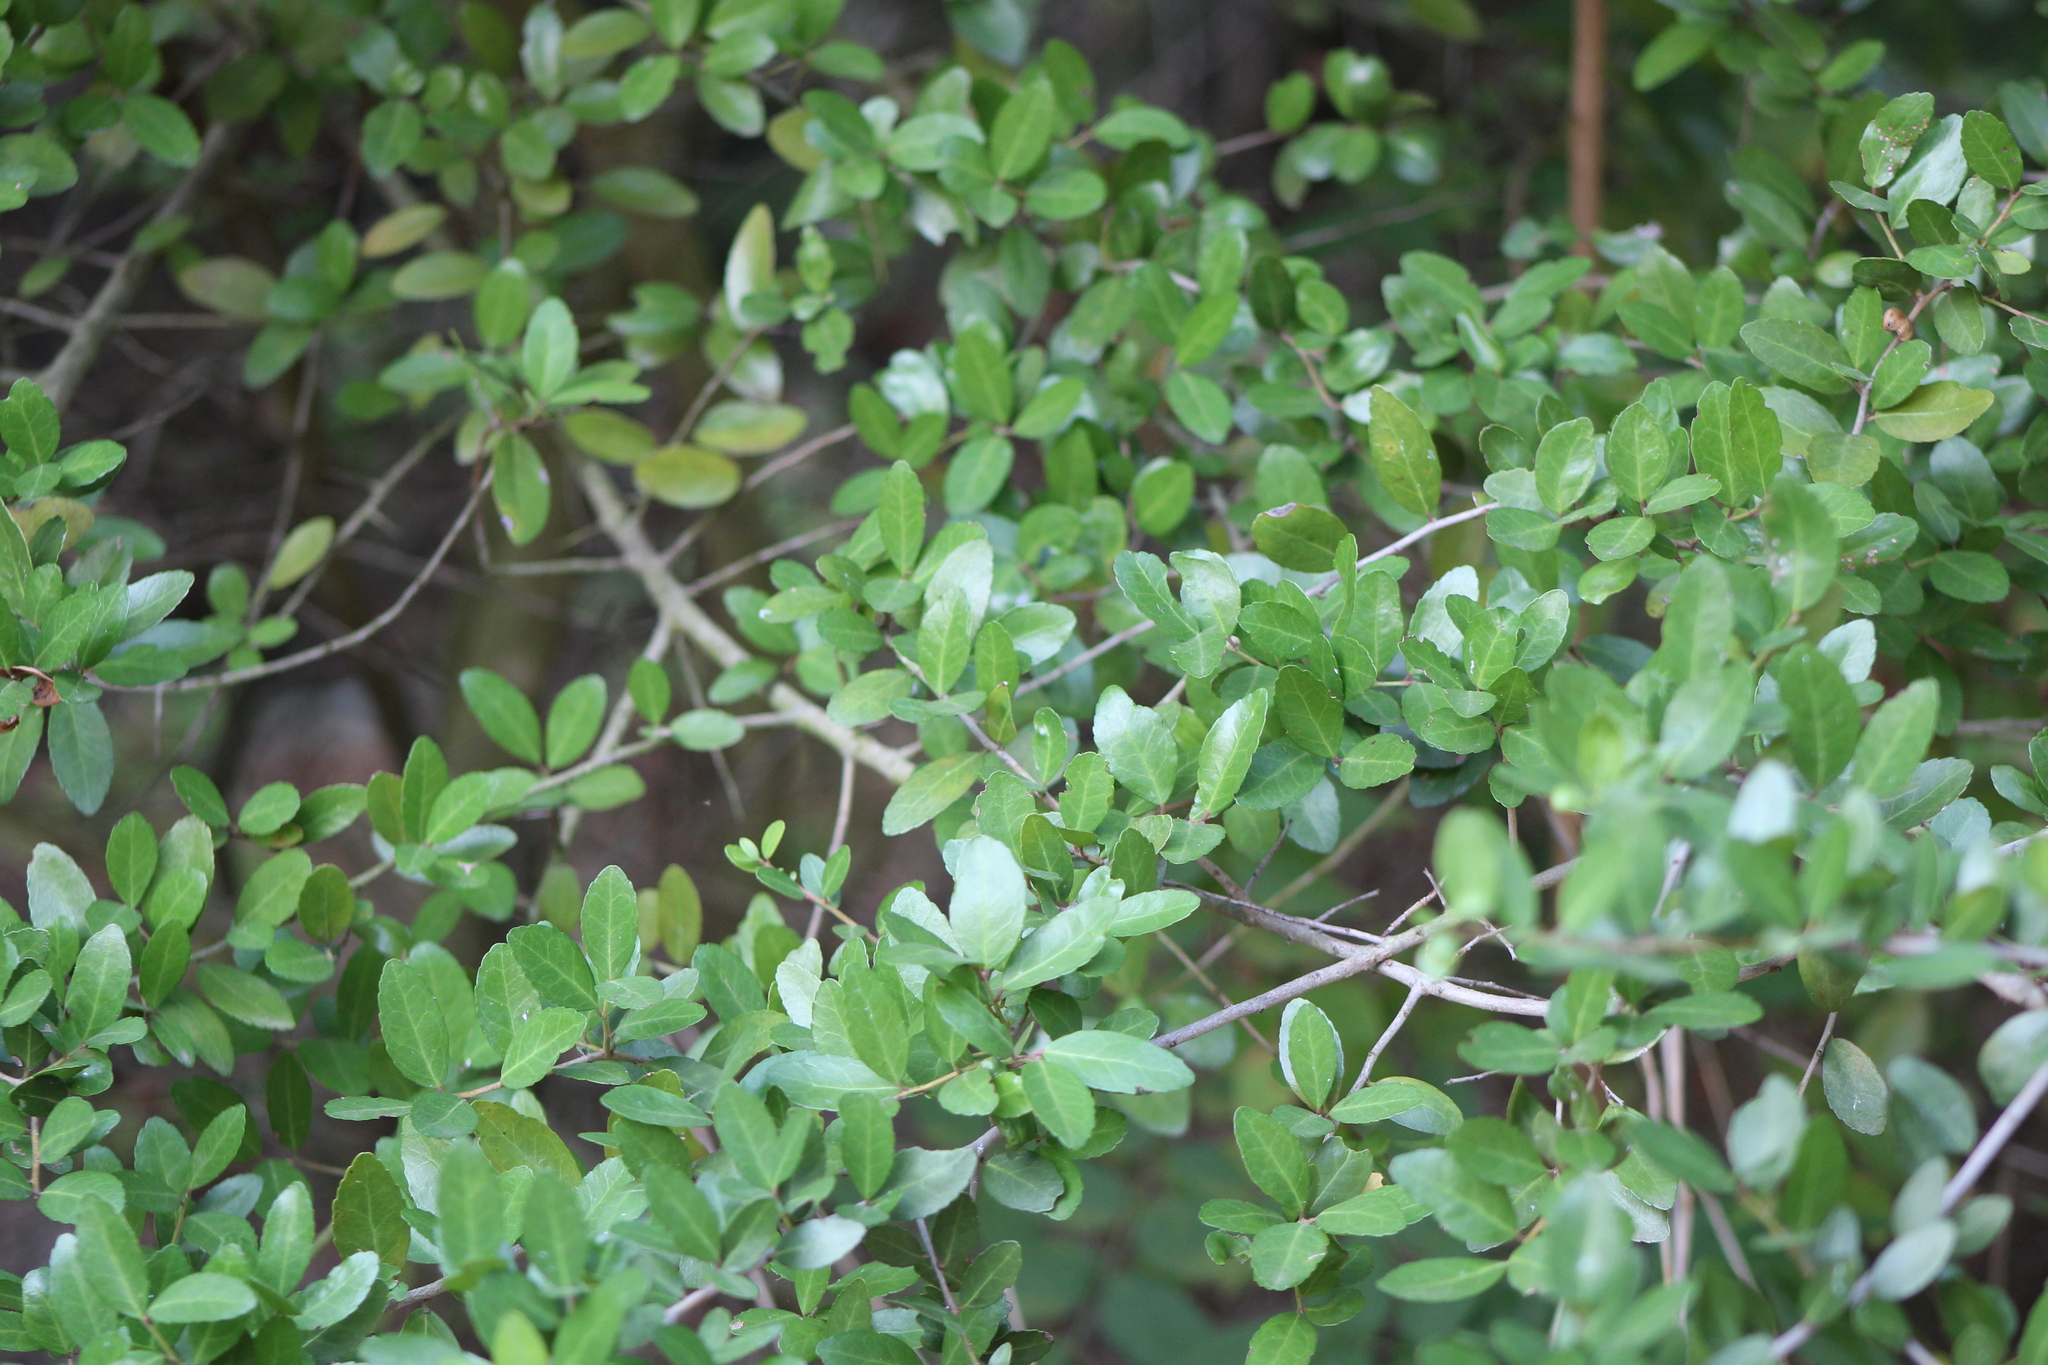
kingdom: Plantae
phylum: Tracheophyta
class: Magnoliopsida
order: Aquifoliales
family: Aquifoliaceae
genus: Ilex
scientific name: Ilex vomitoria
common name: Yaupon holly
